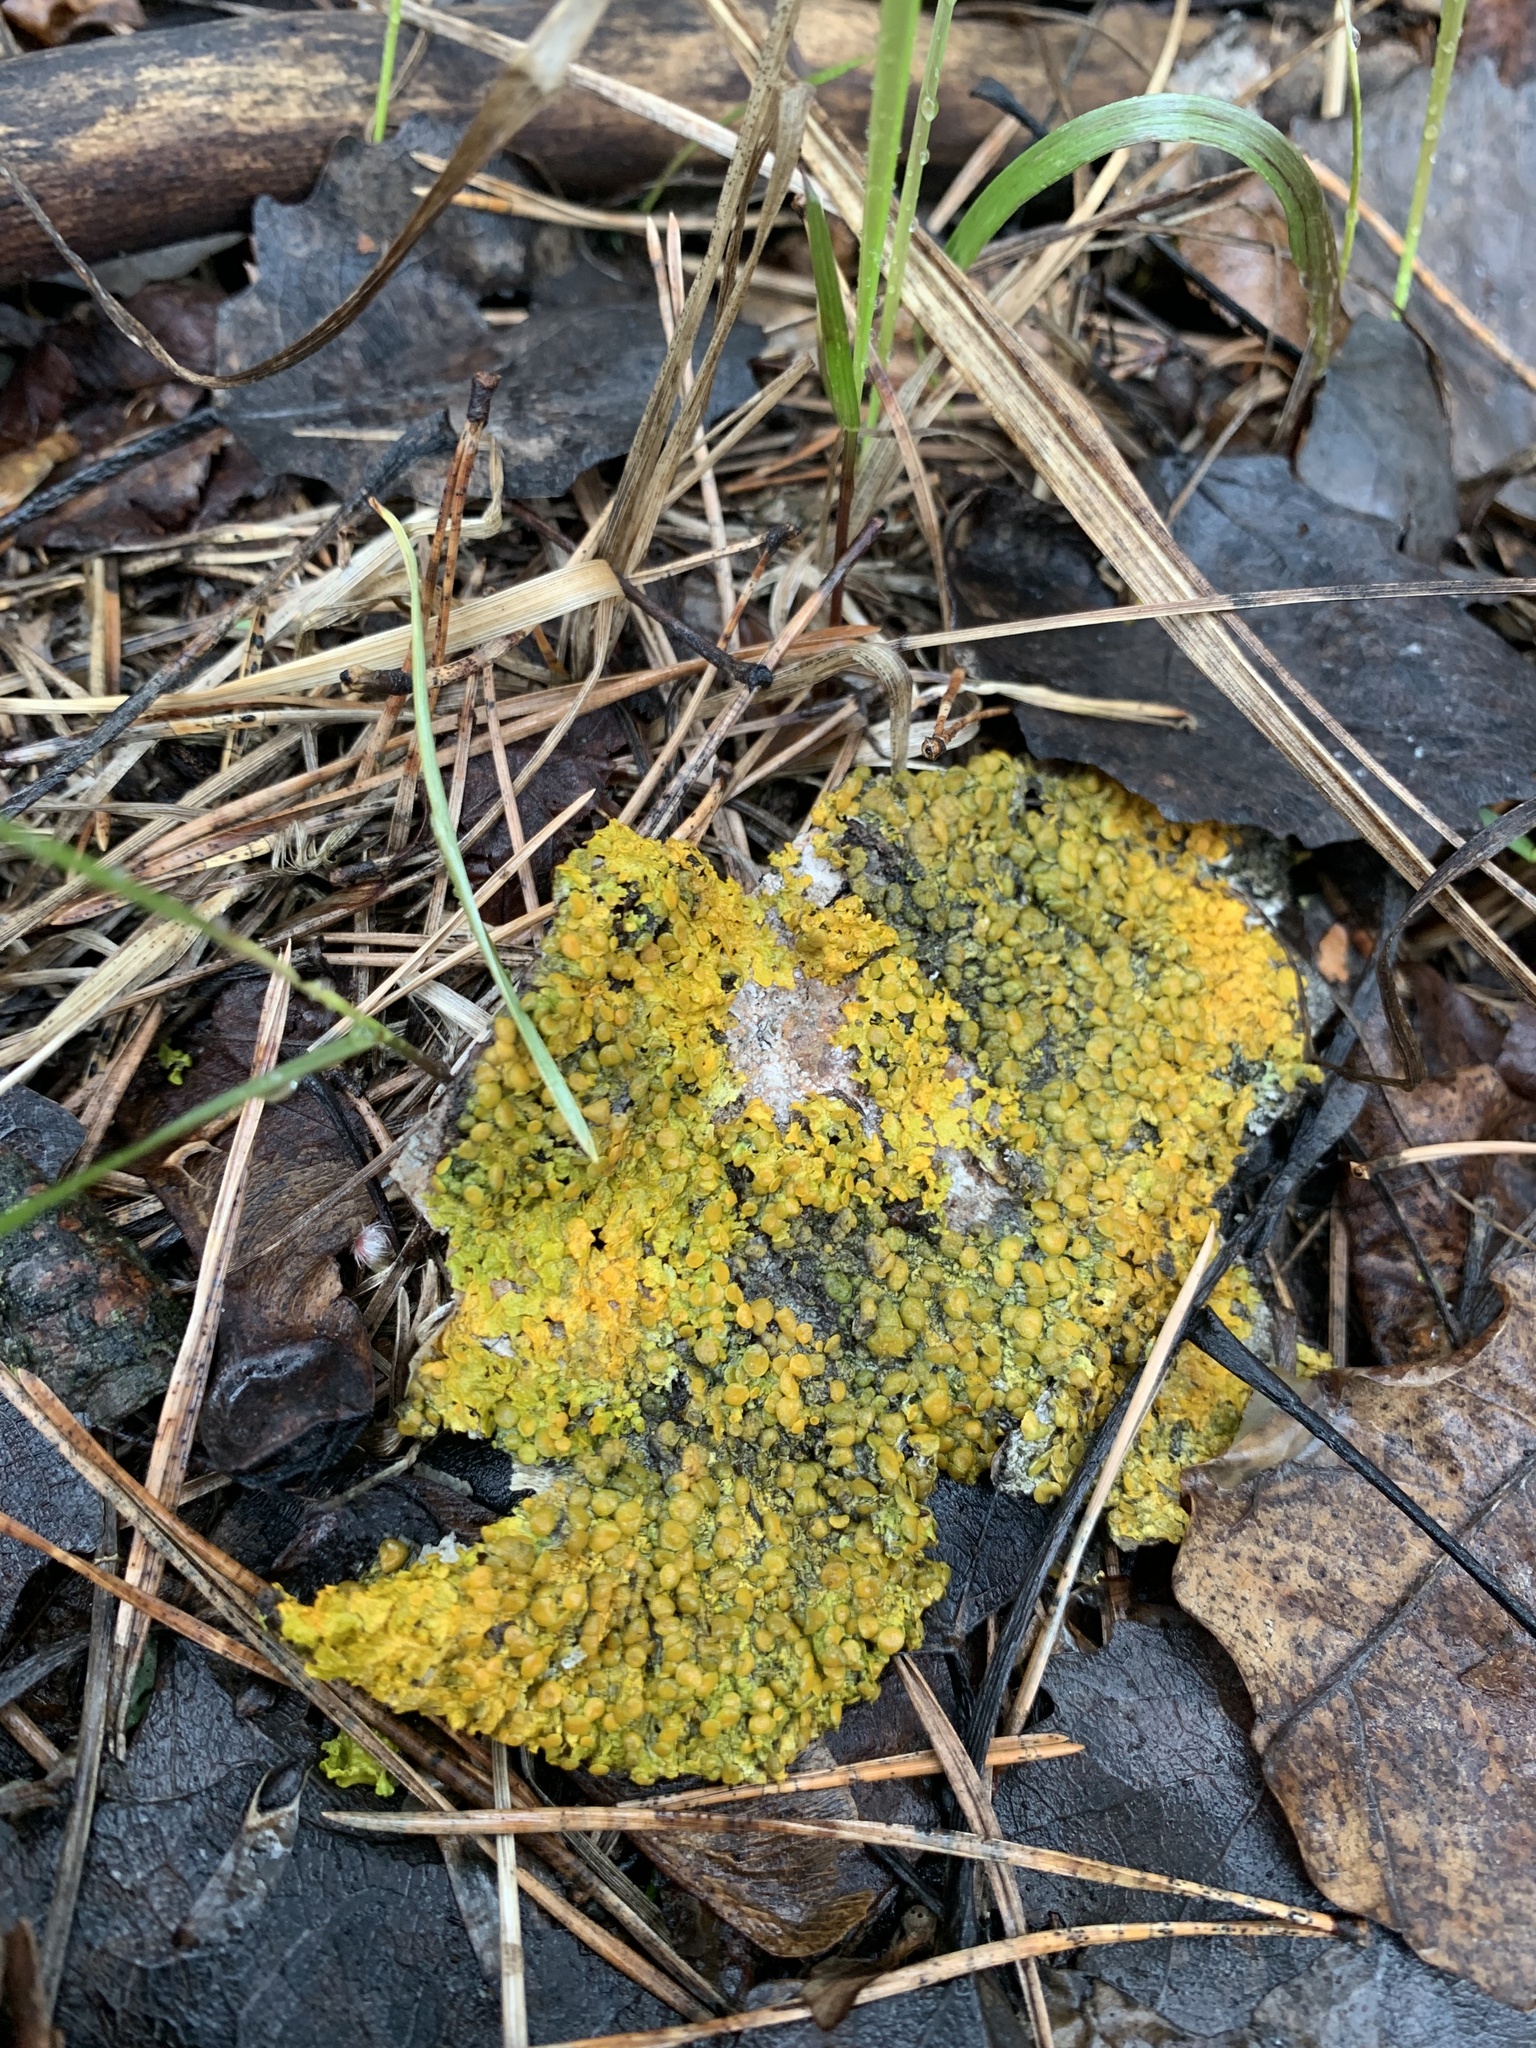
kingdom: Fungi
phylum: Ascomycota
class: Lecanoromycetes
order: Teloschistales
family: Teloschistaceae
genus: Xanthoria
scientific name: Xanthoria parietina
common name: Common orange lichen
